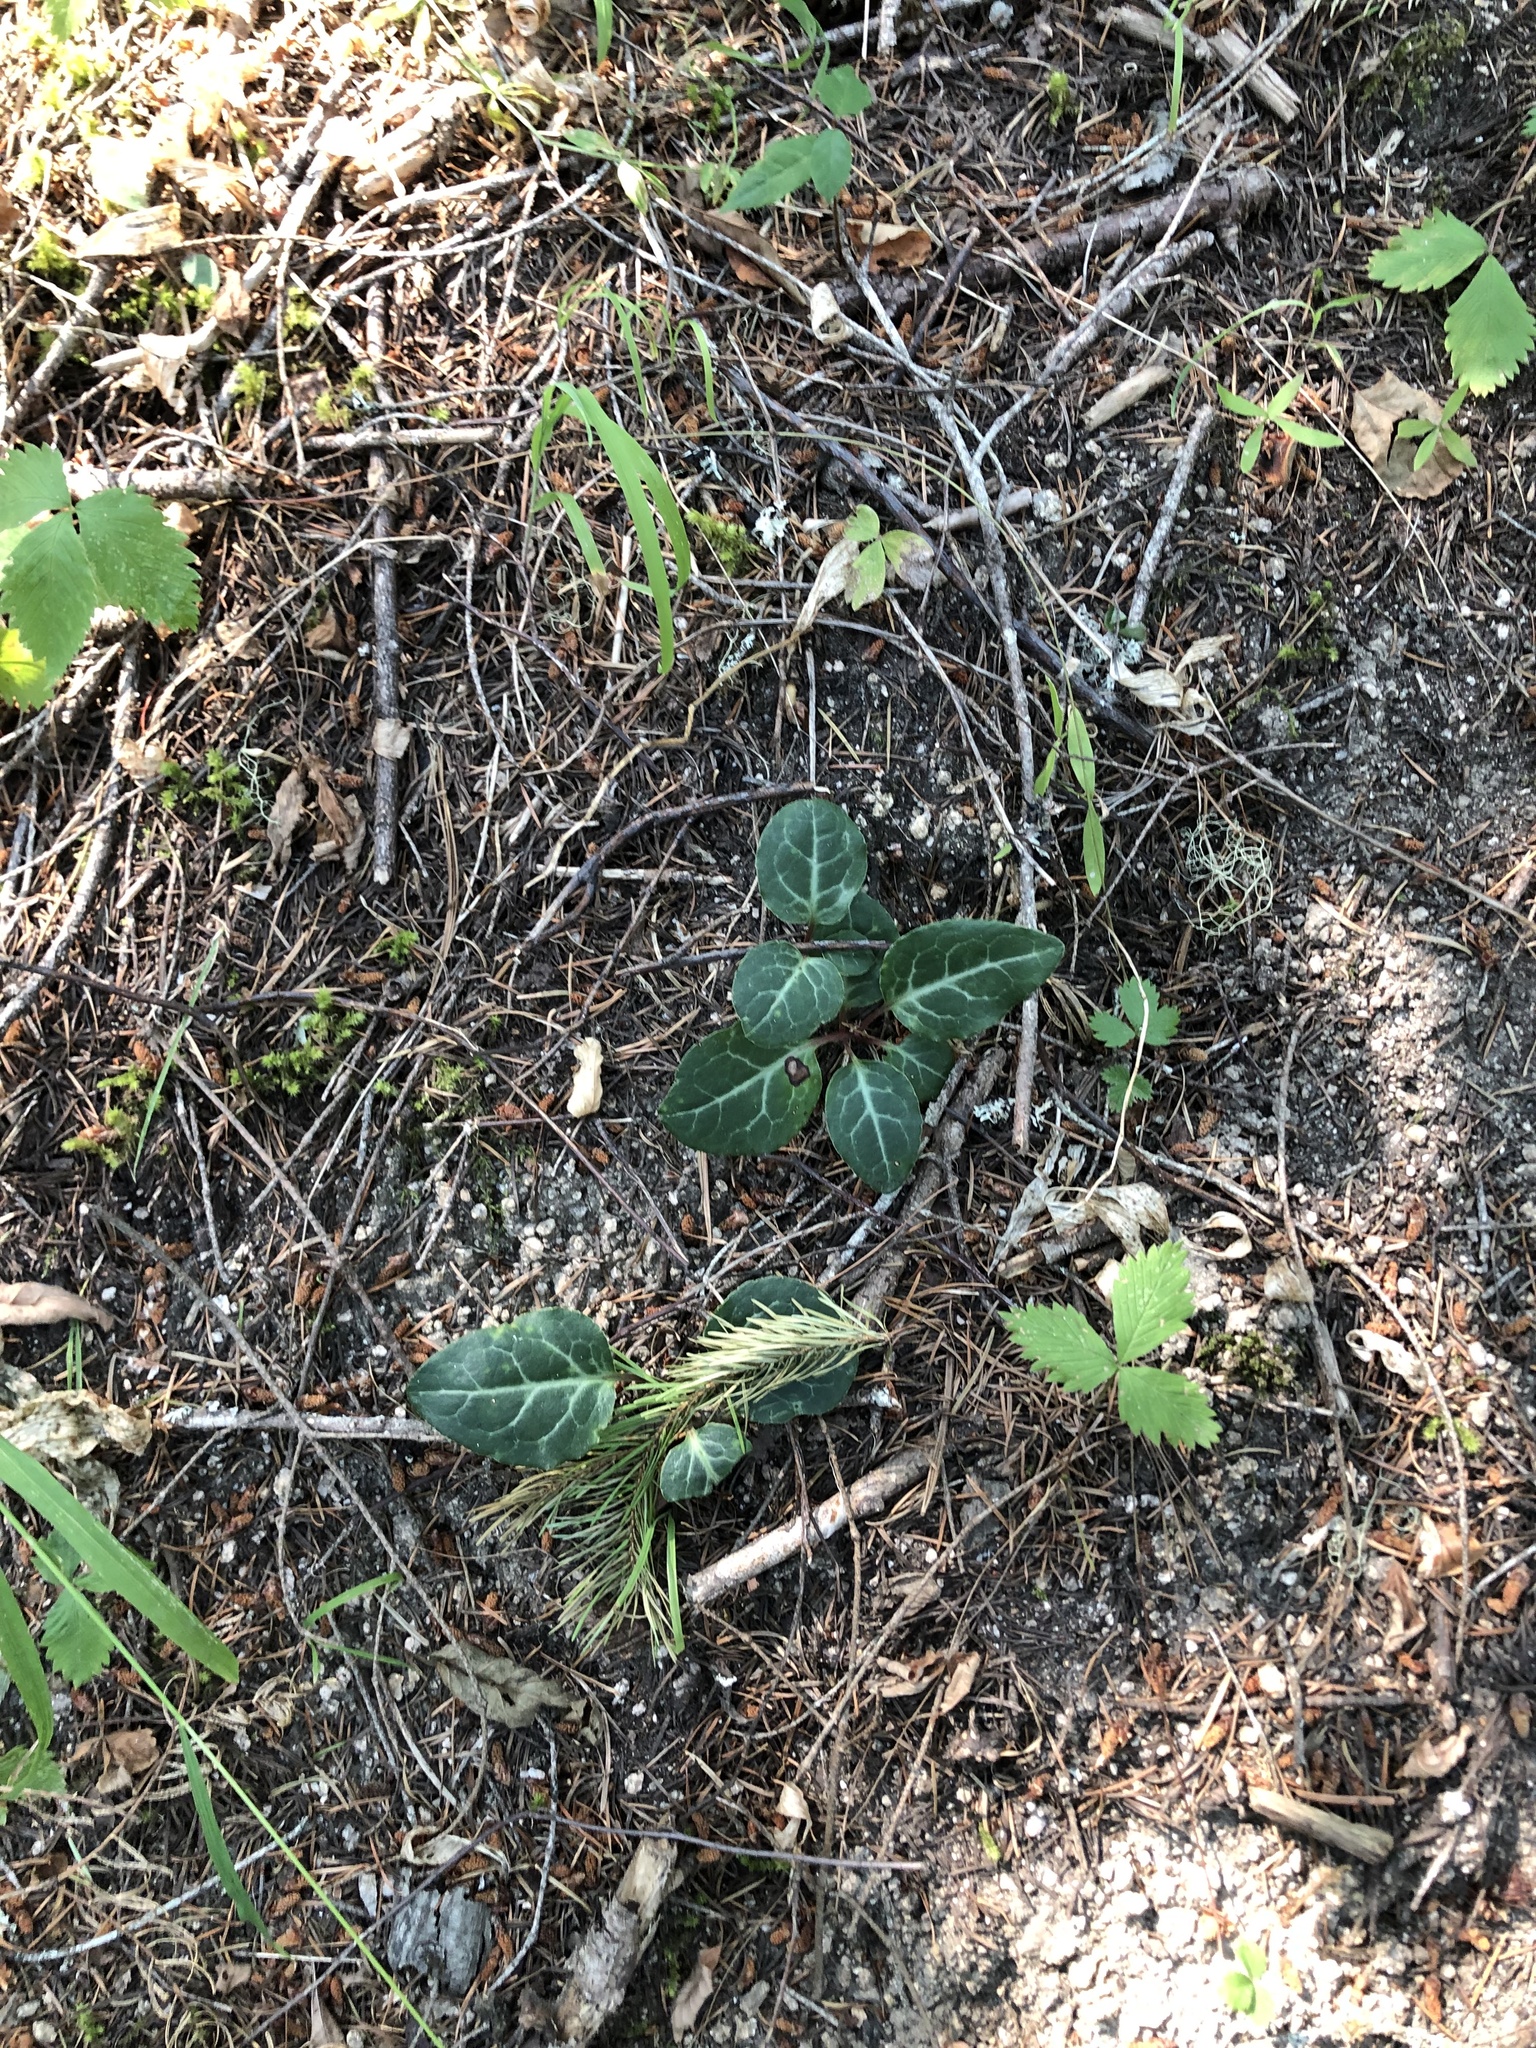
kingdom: Plantae
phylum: Tracheophyta
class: Magnoliopsida
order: Ericales
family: Ericaceae
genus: Pyrola
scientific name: Pyrola picta
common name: White-vein wintergreen
